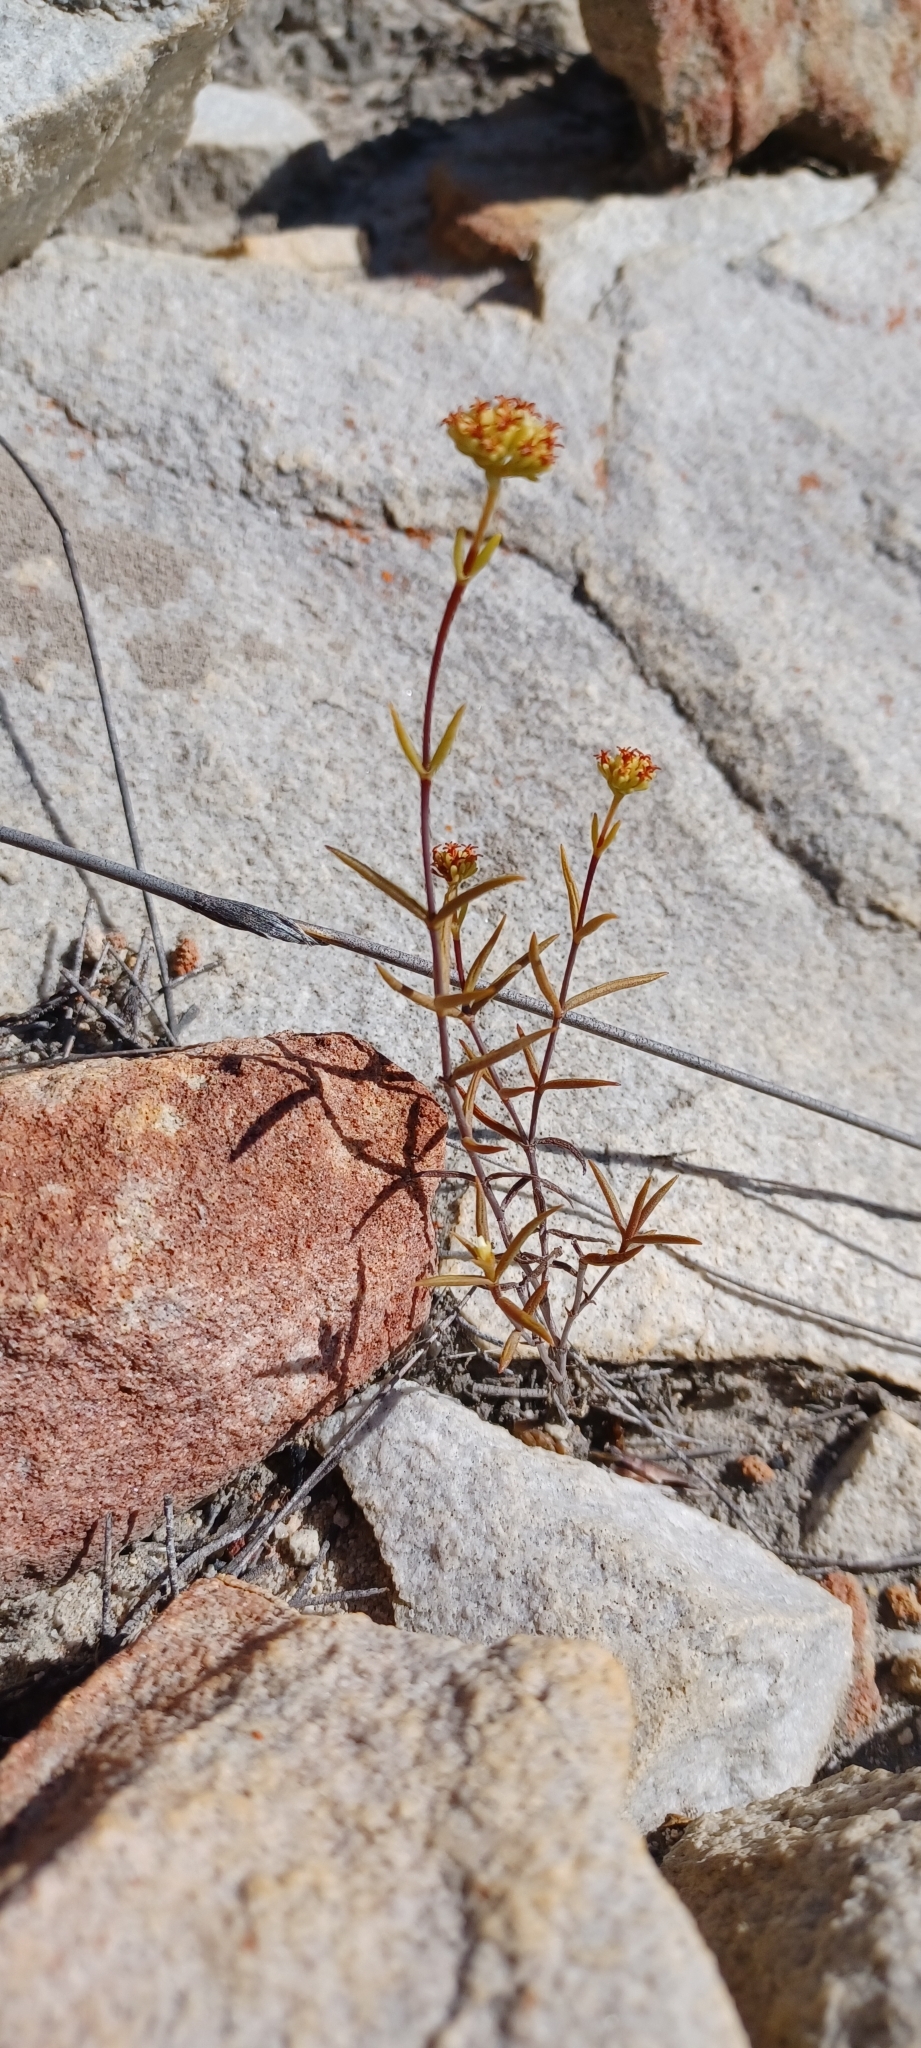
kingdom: Plantae
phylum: Tracheophyta
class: Magnoliopsida
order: Saxifragales
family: Crassulaceae
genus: Crassula
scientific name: Crassula subulata
